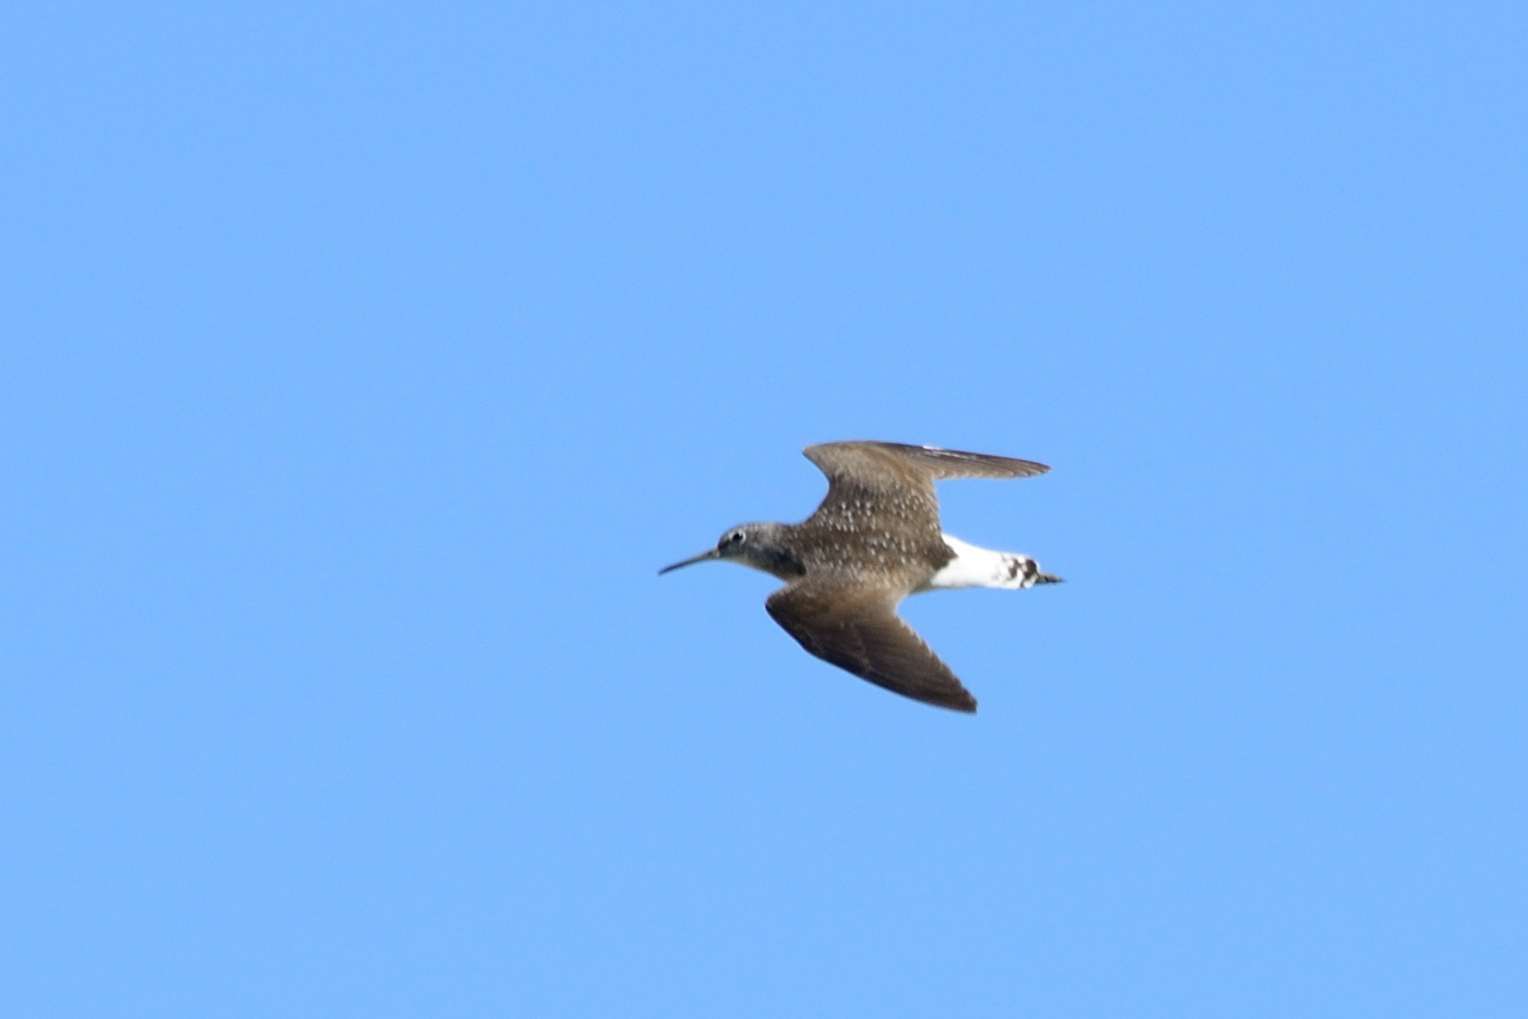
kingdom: Animalia
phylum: Chordata
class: Aves
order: Charadriiformes
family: Scolopacidae
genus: Tringa
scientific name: Tringa ochropus
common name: Green sandpiper
